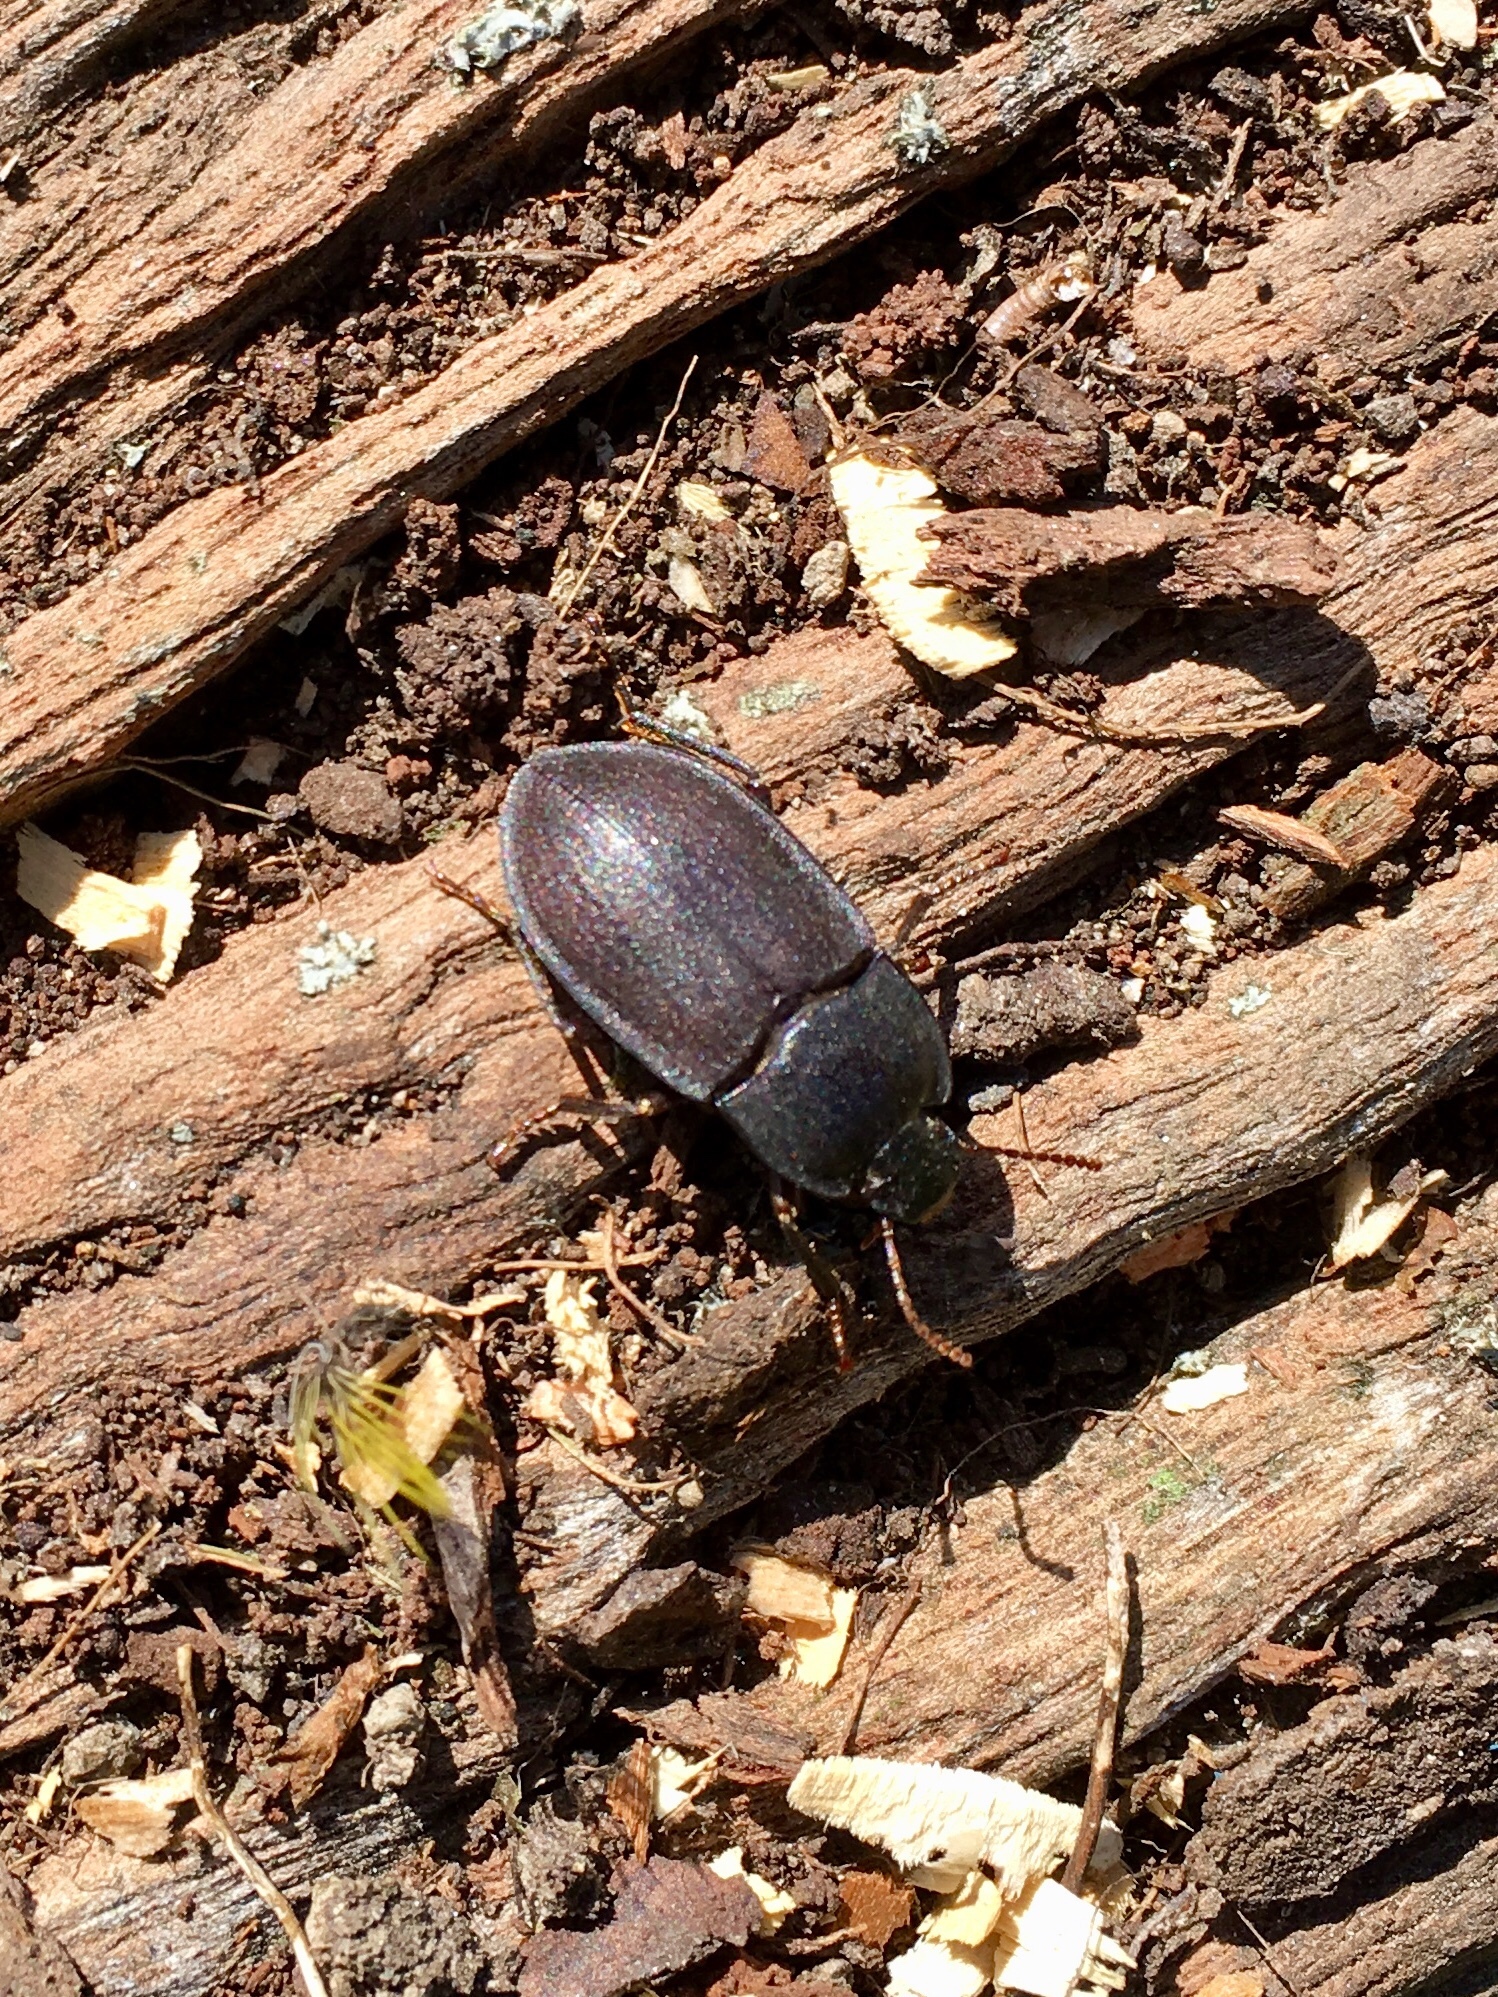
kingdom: Animalia
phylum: Arthropoda
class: Insecta
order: Coleoptera
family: Tenebrionidae
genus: Mimopeus
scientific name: Mimopeus
